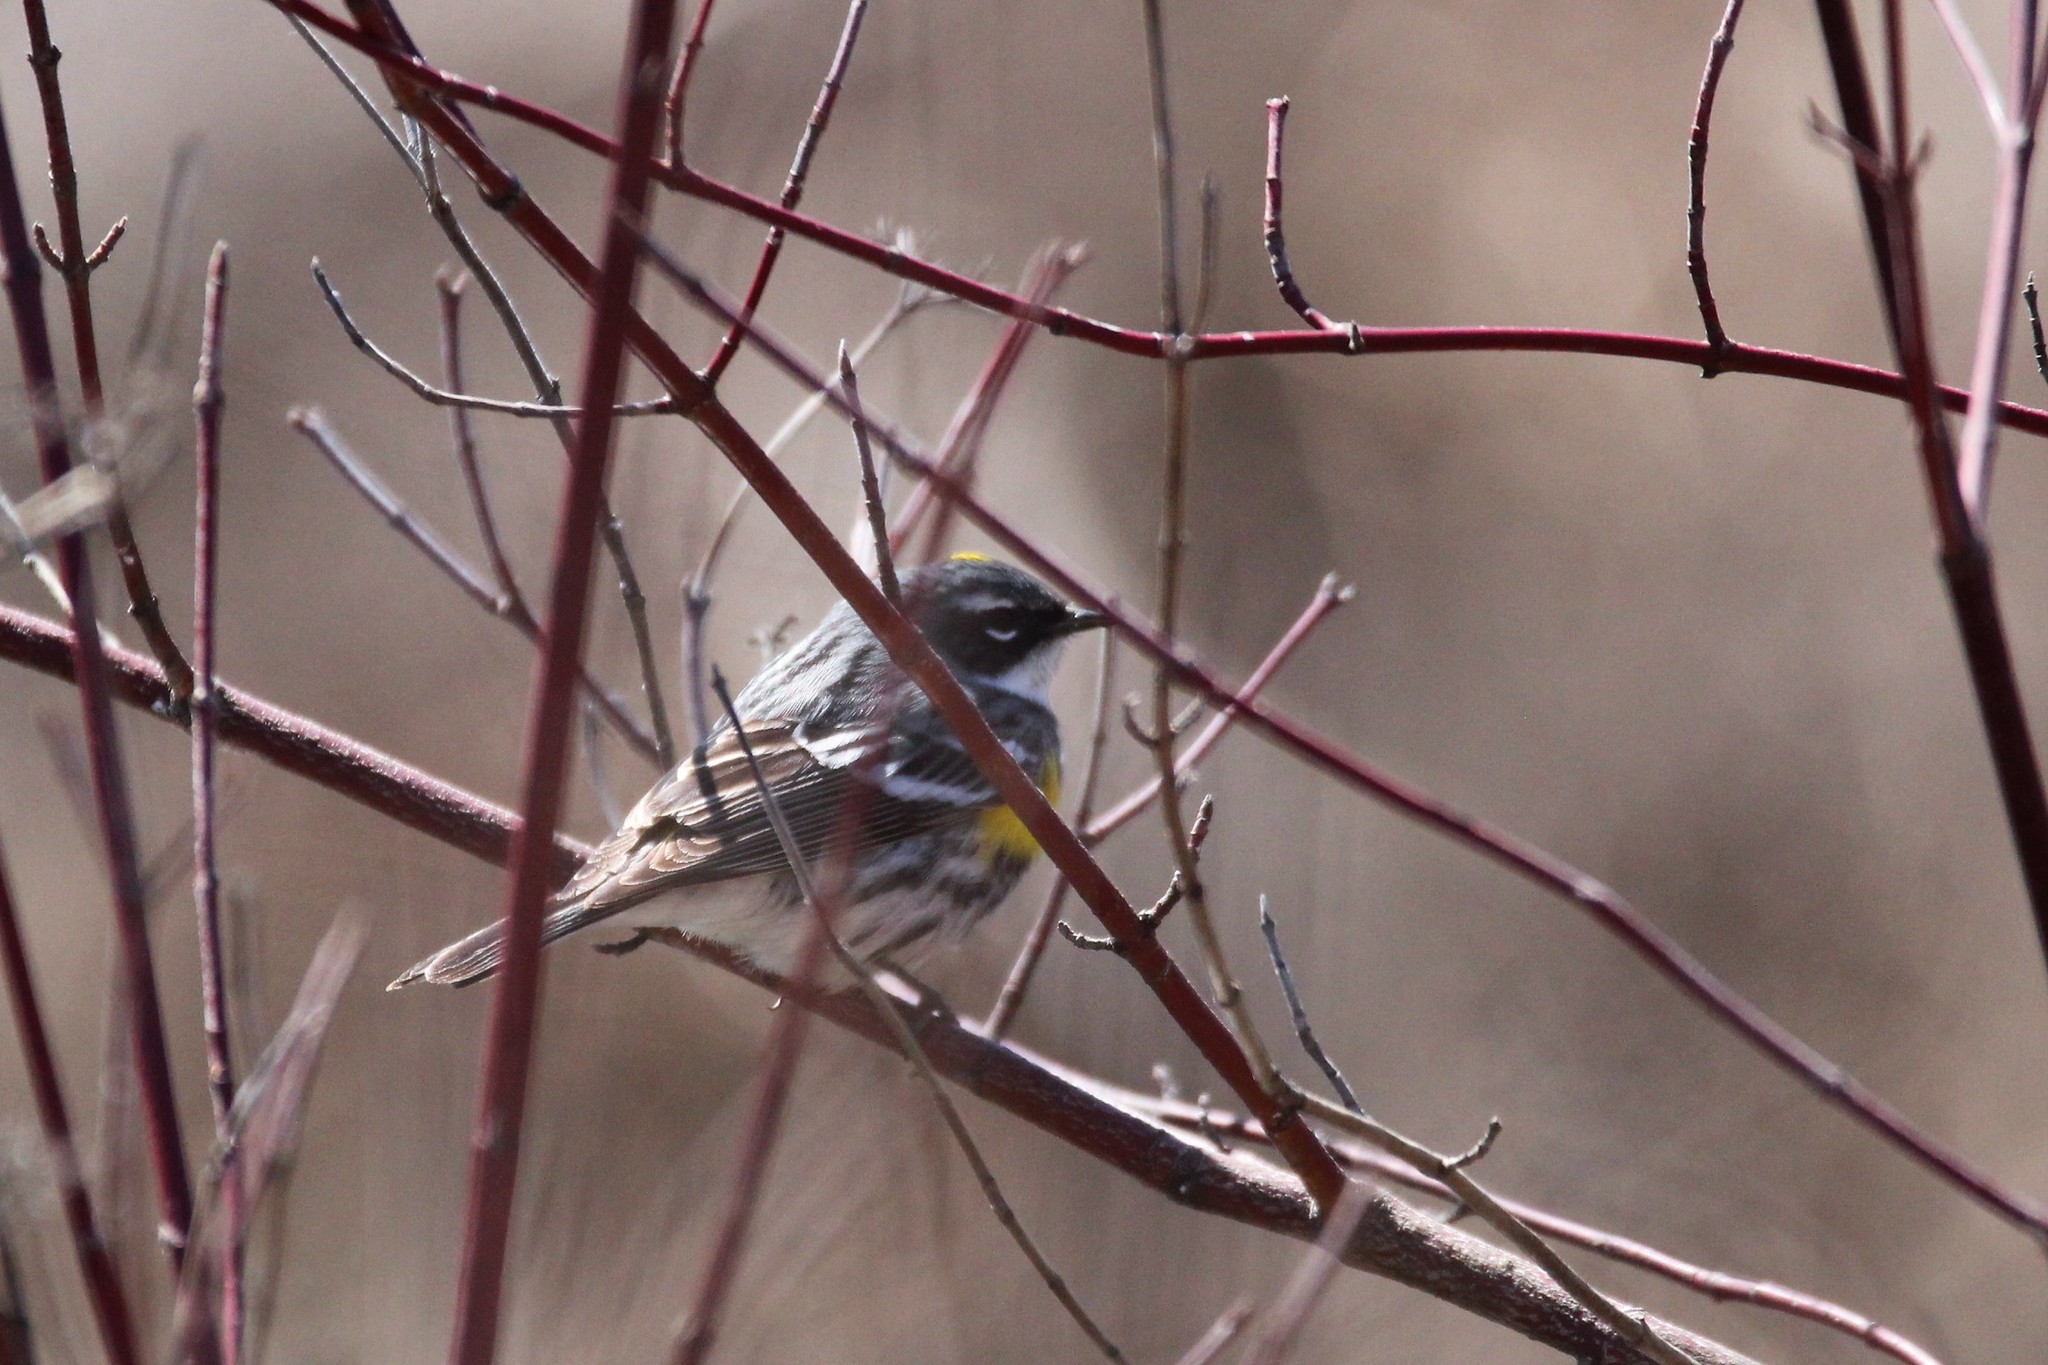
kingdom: Animalia
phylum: Chordata
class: Aves
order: Passeriformes
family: Parulidae
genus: Setophaga
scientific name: Setophaga coronata
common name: Myrtle warbler
